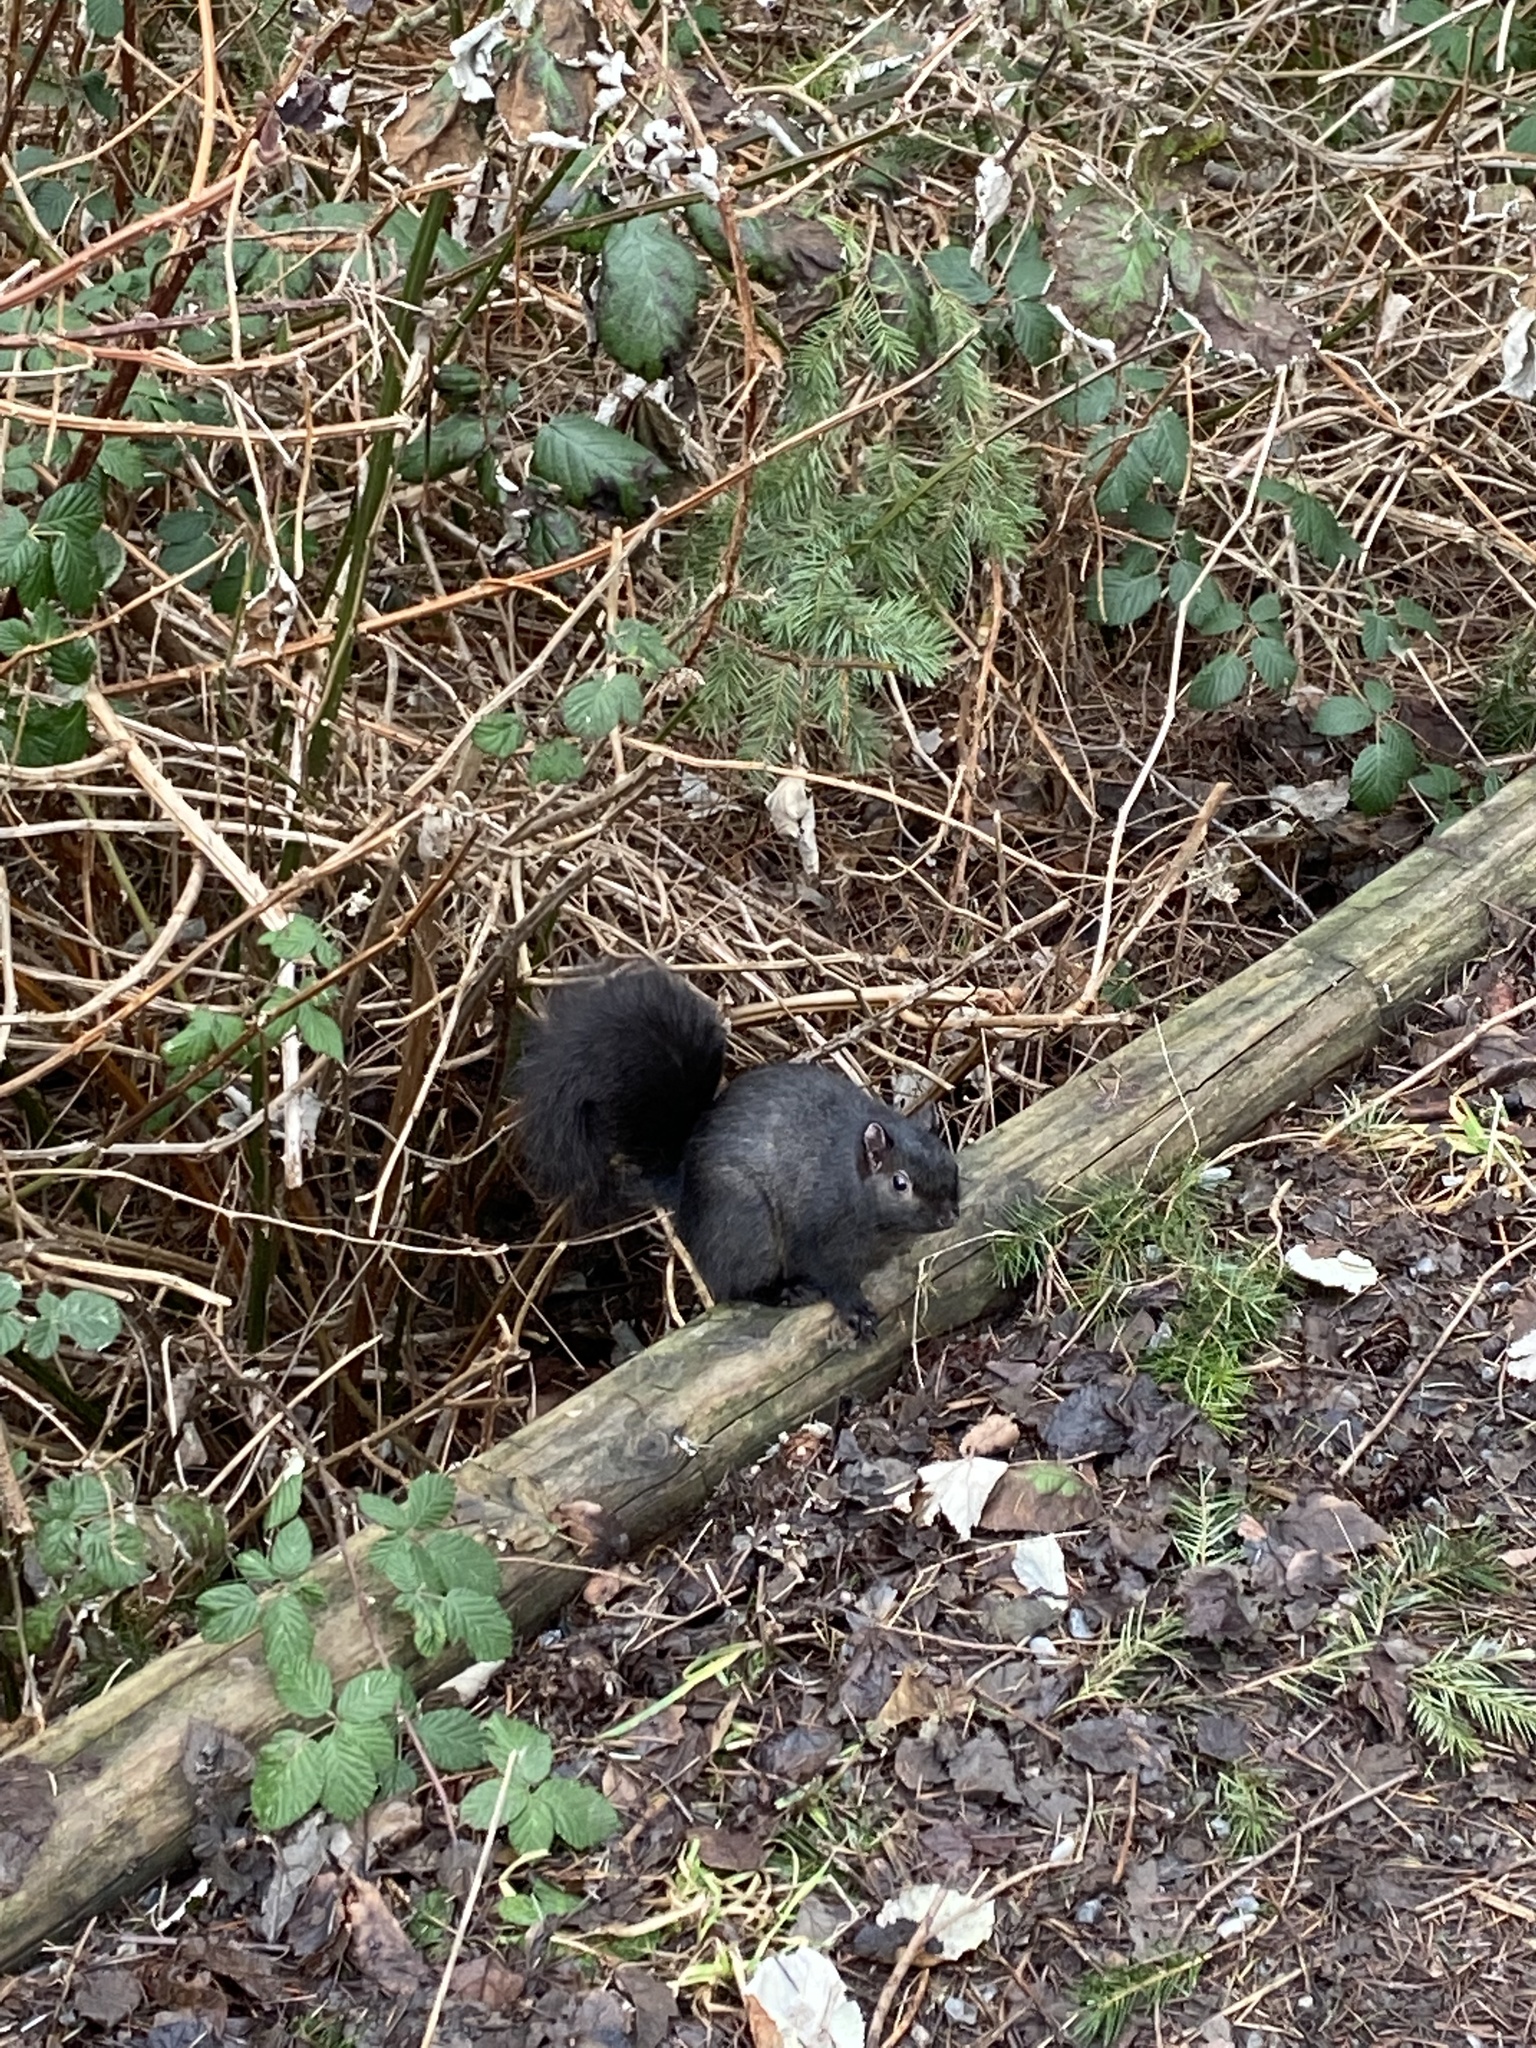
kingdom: Animalia
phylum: Chordata
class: Mammalia
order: Rodentia
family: Sciuridae
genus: Sciurus
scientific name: Sciurus carolinensis
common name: Eastern gray squirrel
